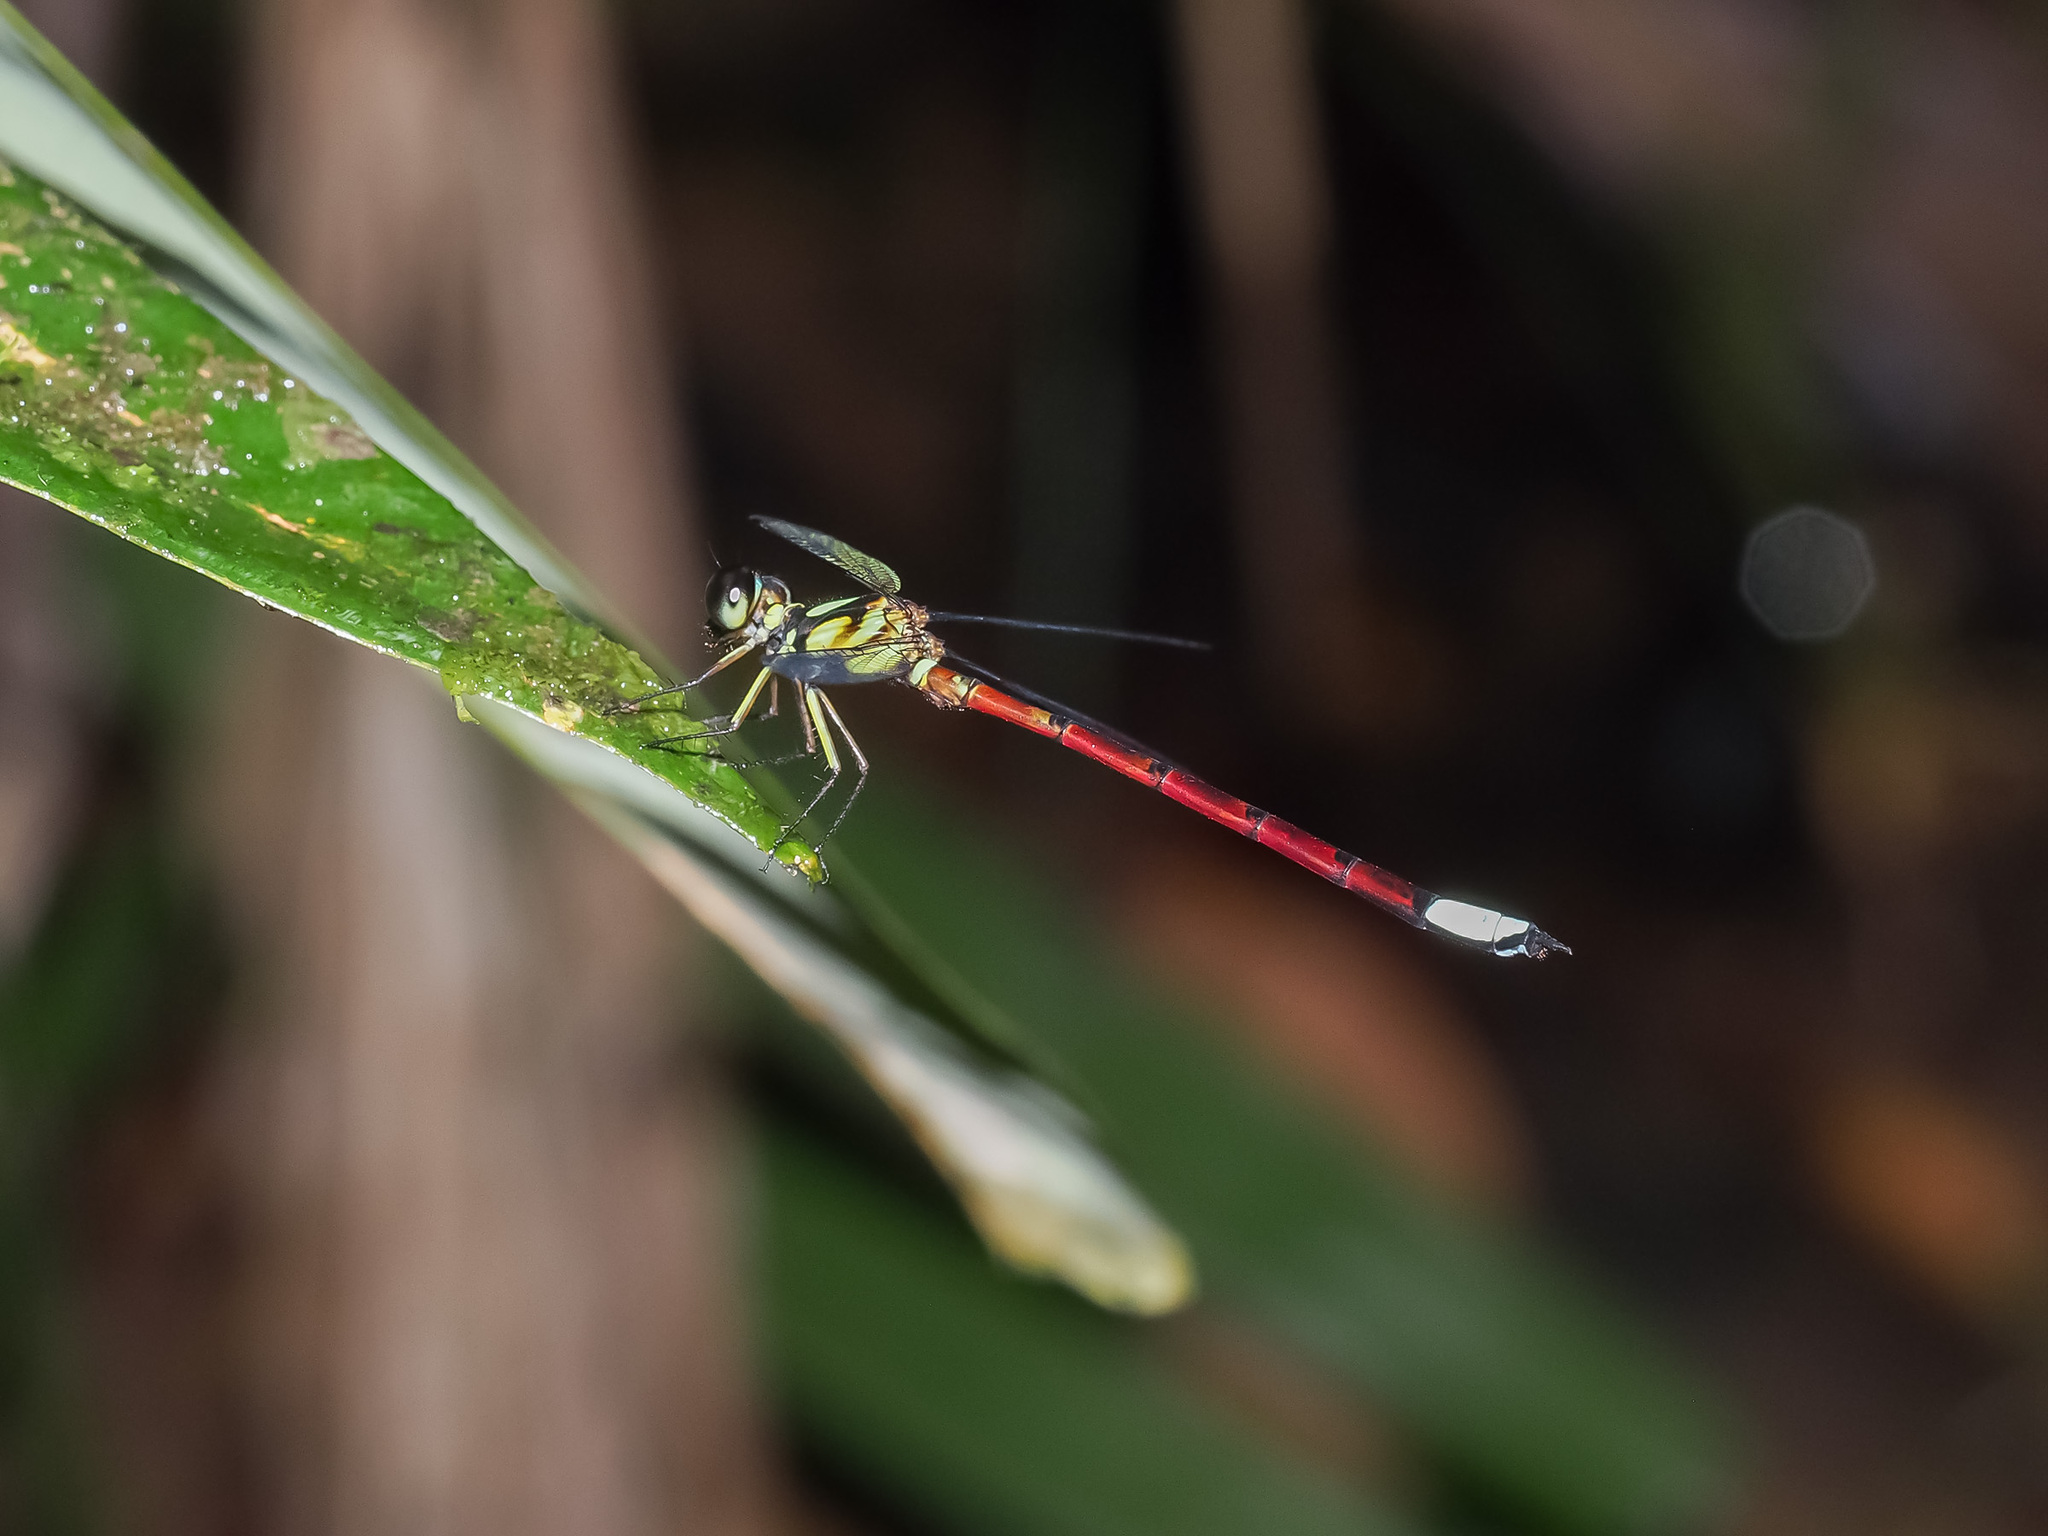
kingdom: Animalia
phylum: Arthropoda
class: Insecta
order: Odonata
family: Philosinidae
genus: Rhinagrion
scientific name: Rhinagrion borneense
